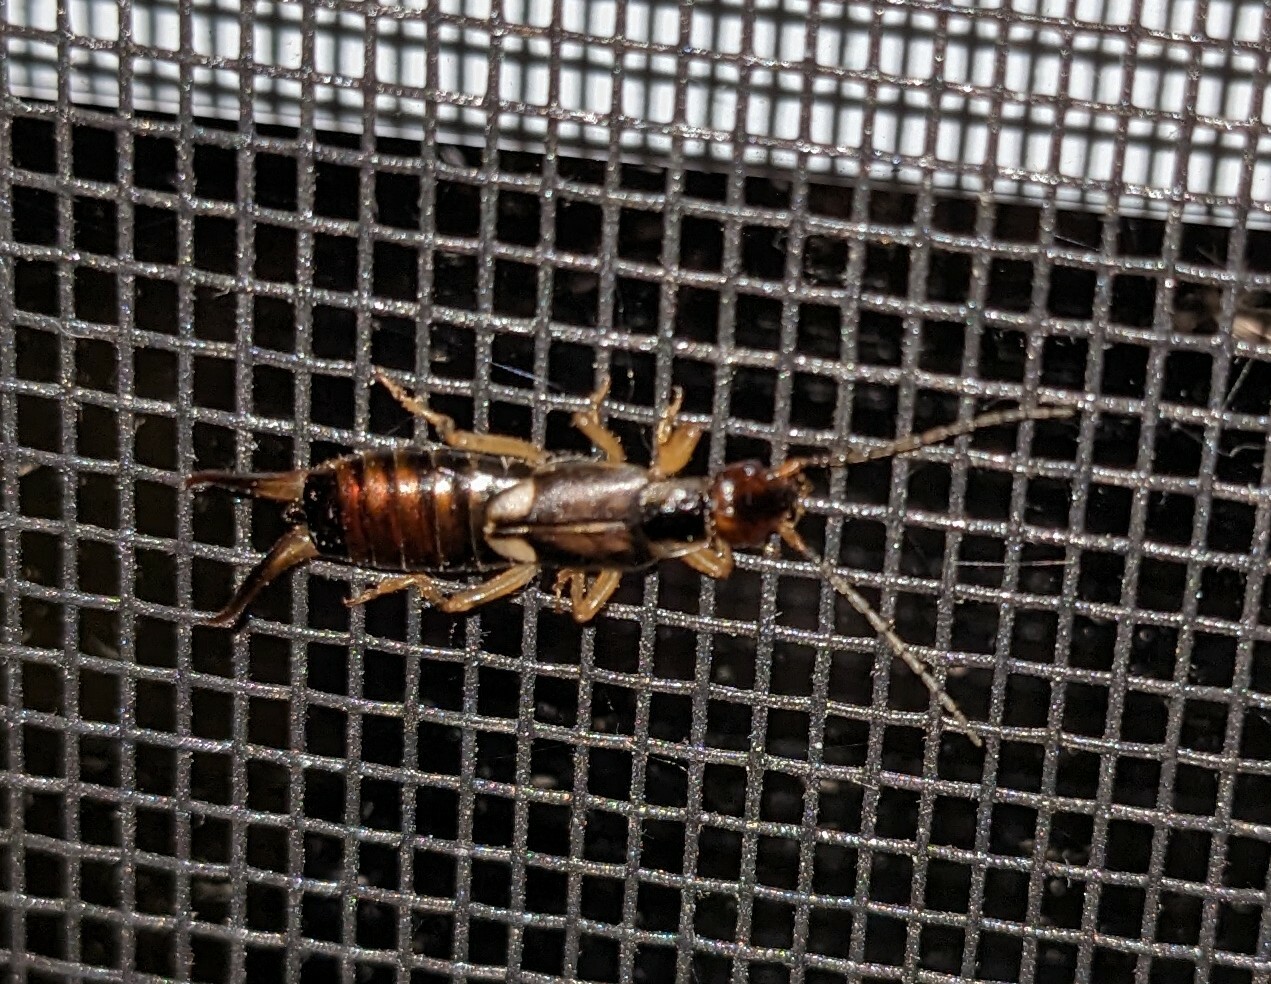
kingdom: Animalia
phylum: Arthropoda
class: Insecta
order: Dermaptera
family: Forficulidae
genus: Forficula
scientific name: Forficula
